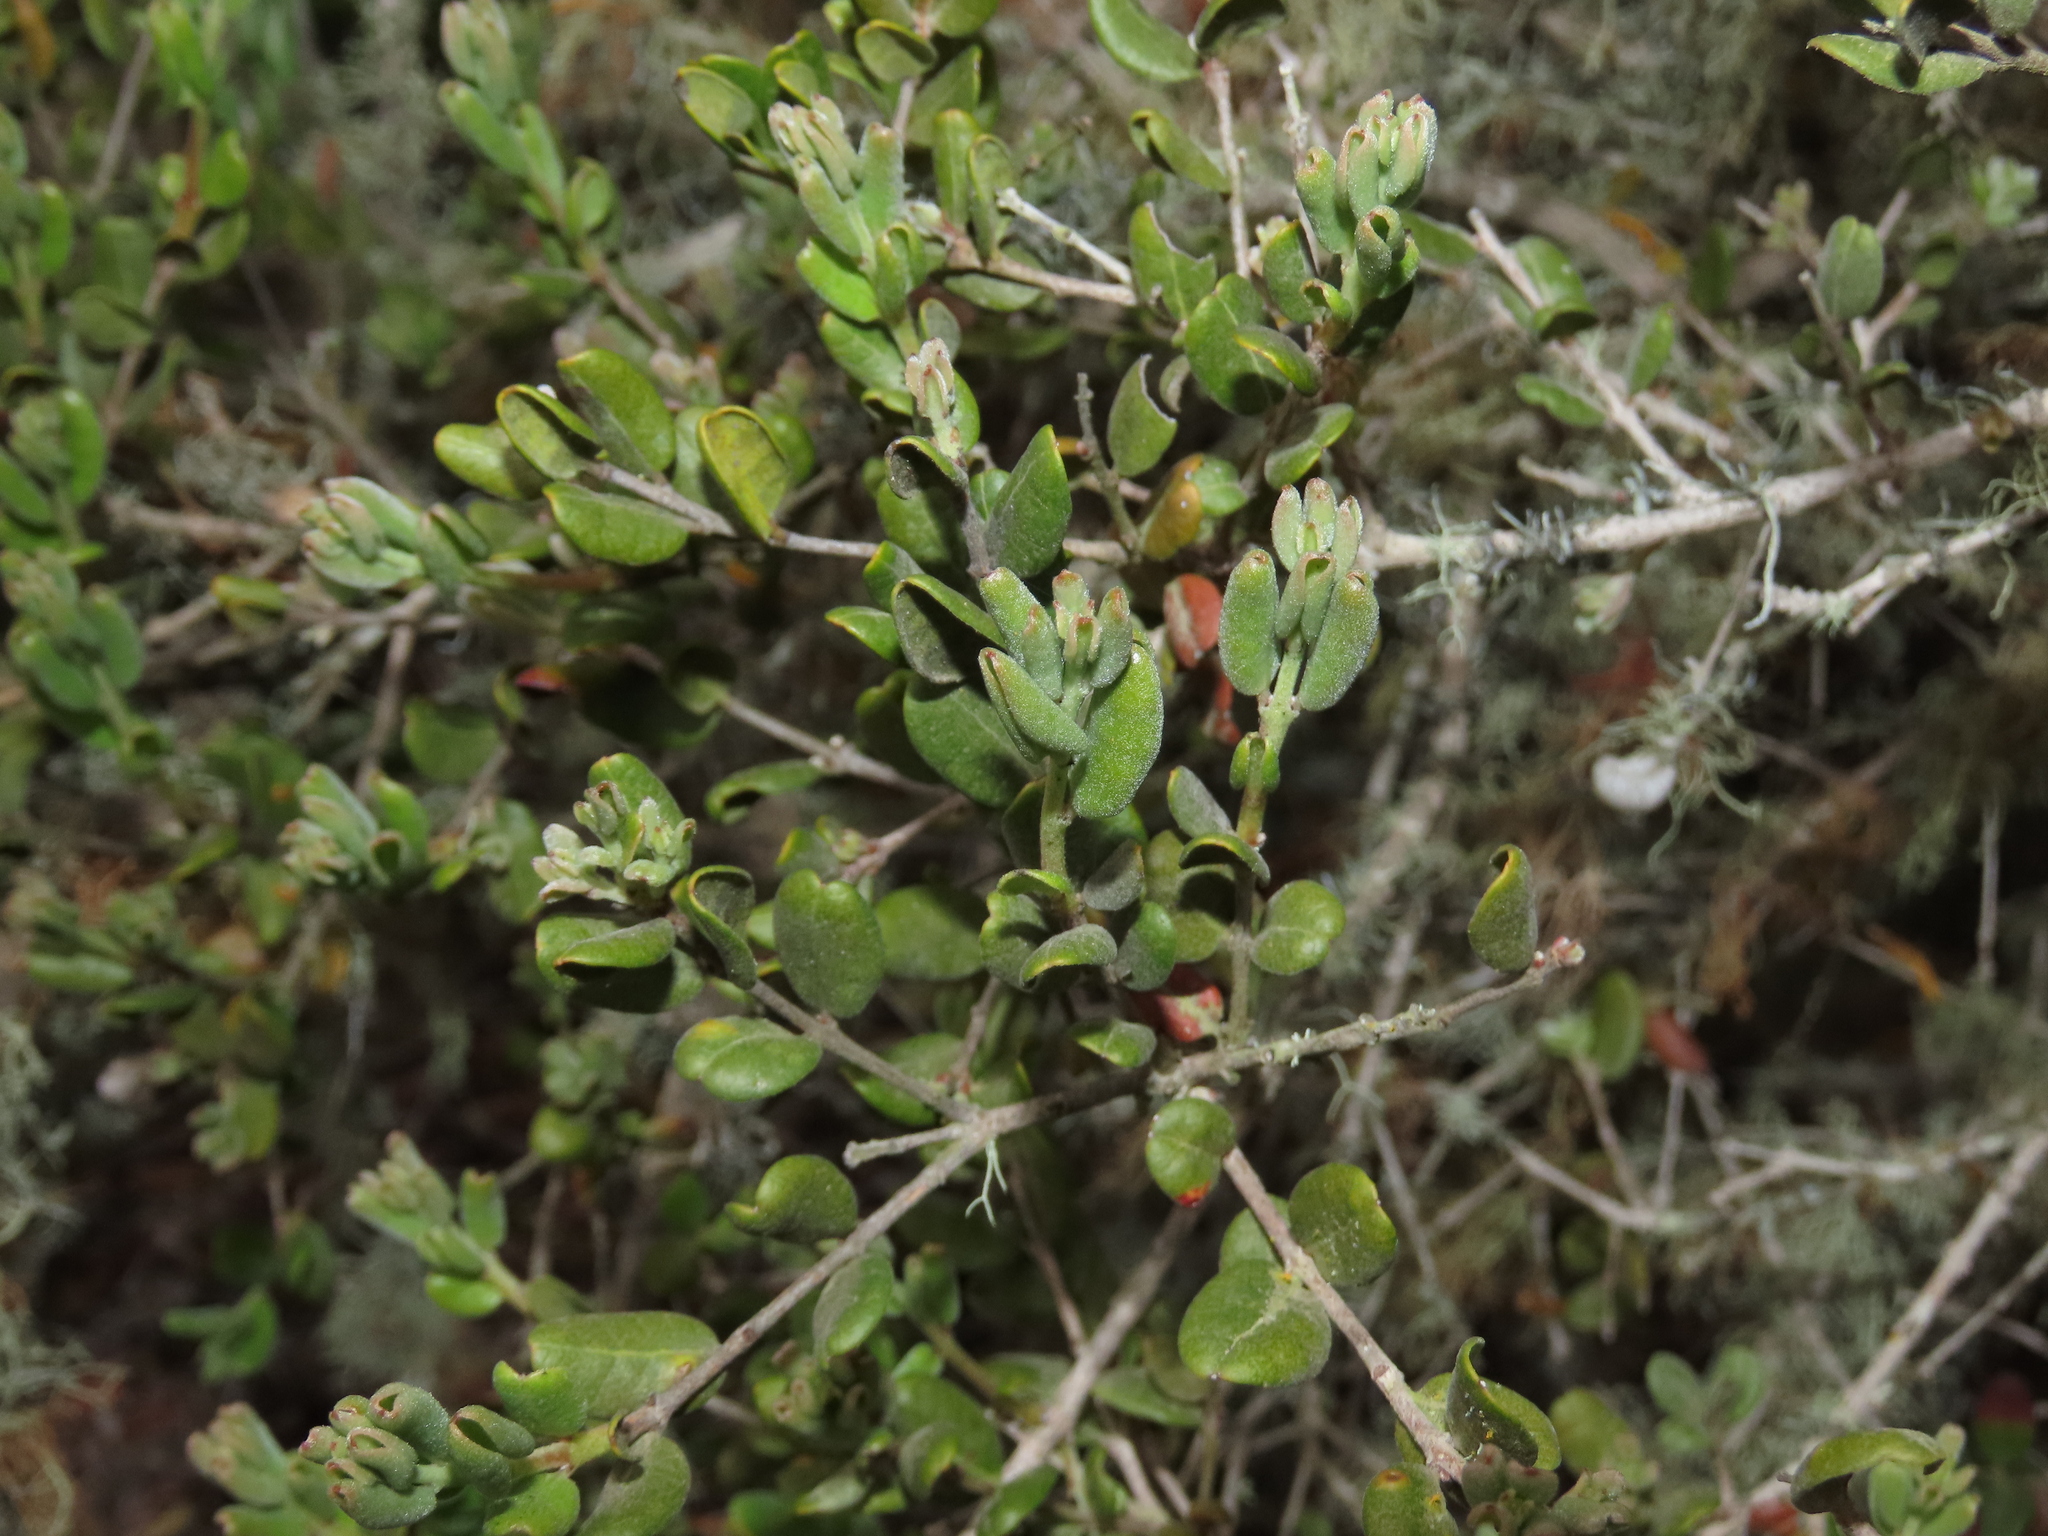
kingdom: Plantae
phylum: Tracheophyta
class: Magnoliopsida
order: Myrtales
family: Myrtaceae
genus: Myrcianthes
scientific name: Myrcianthes coquimbensis
